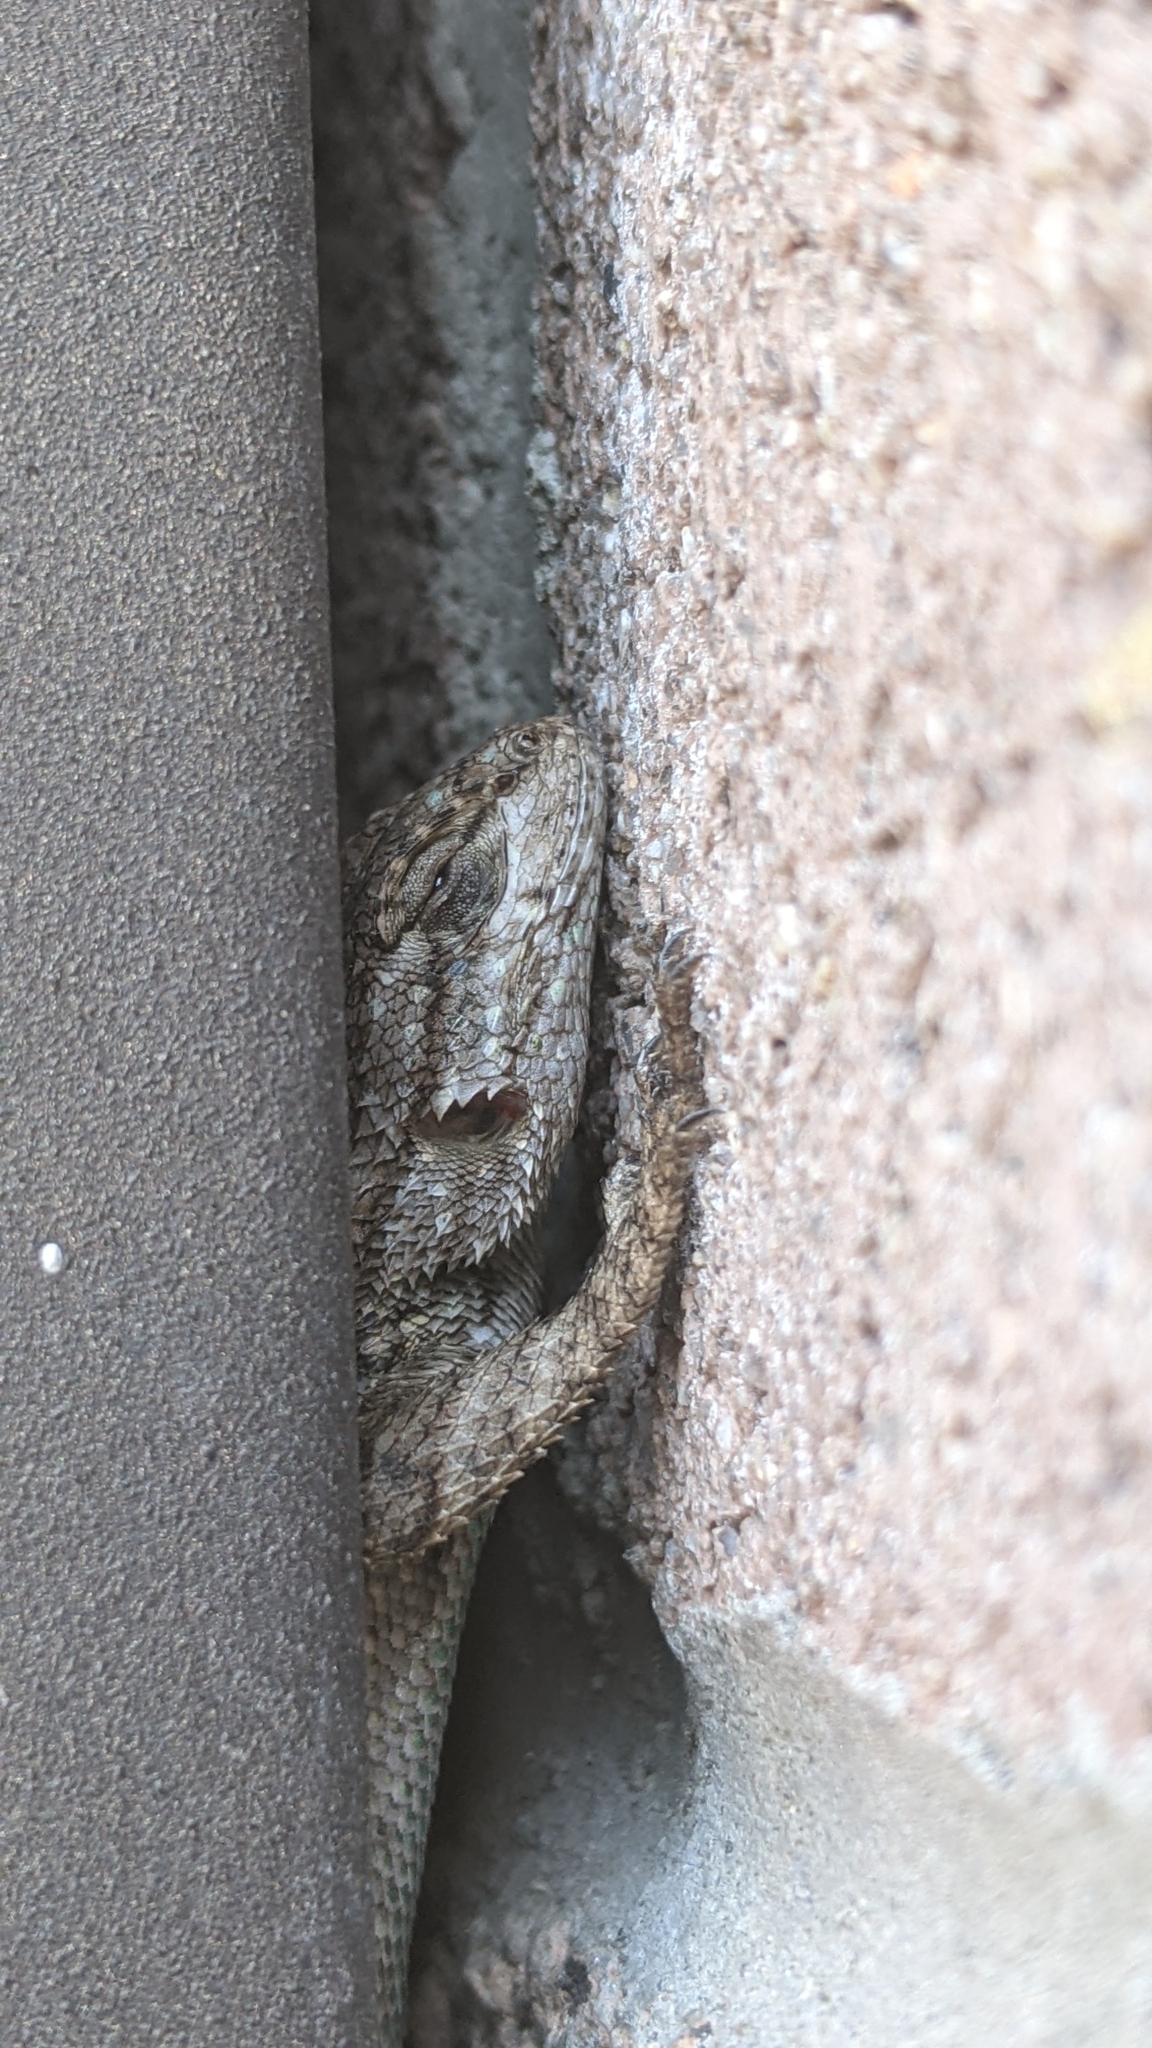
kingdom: Animalia
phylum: Chordata
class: Squamata
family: Phrynosomatidae
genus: Sceloporus
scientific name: Sceloporus occidentalis
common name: Western fence lizard
